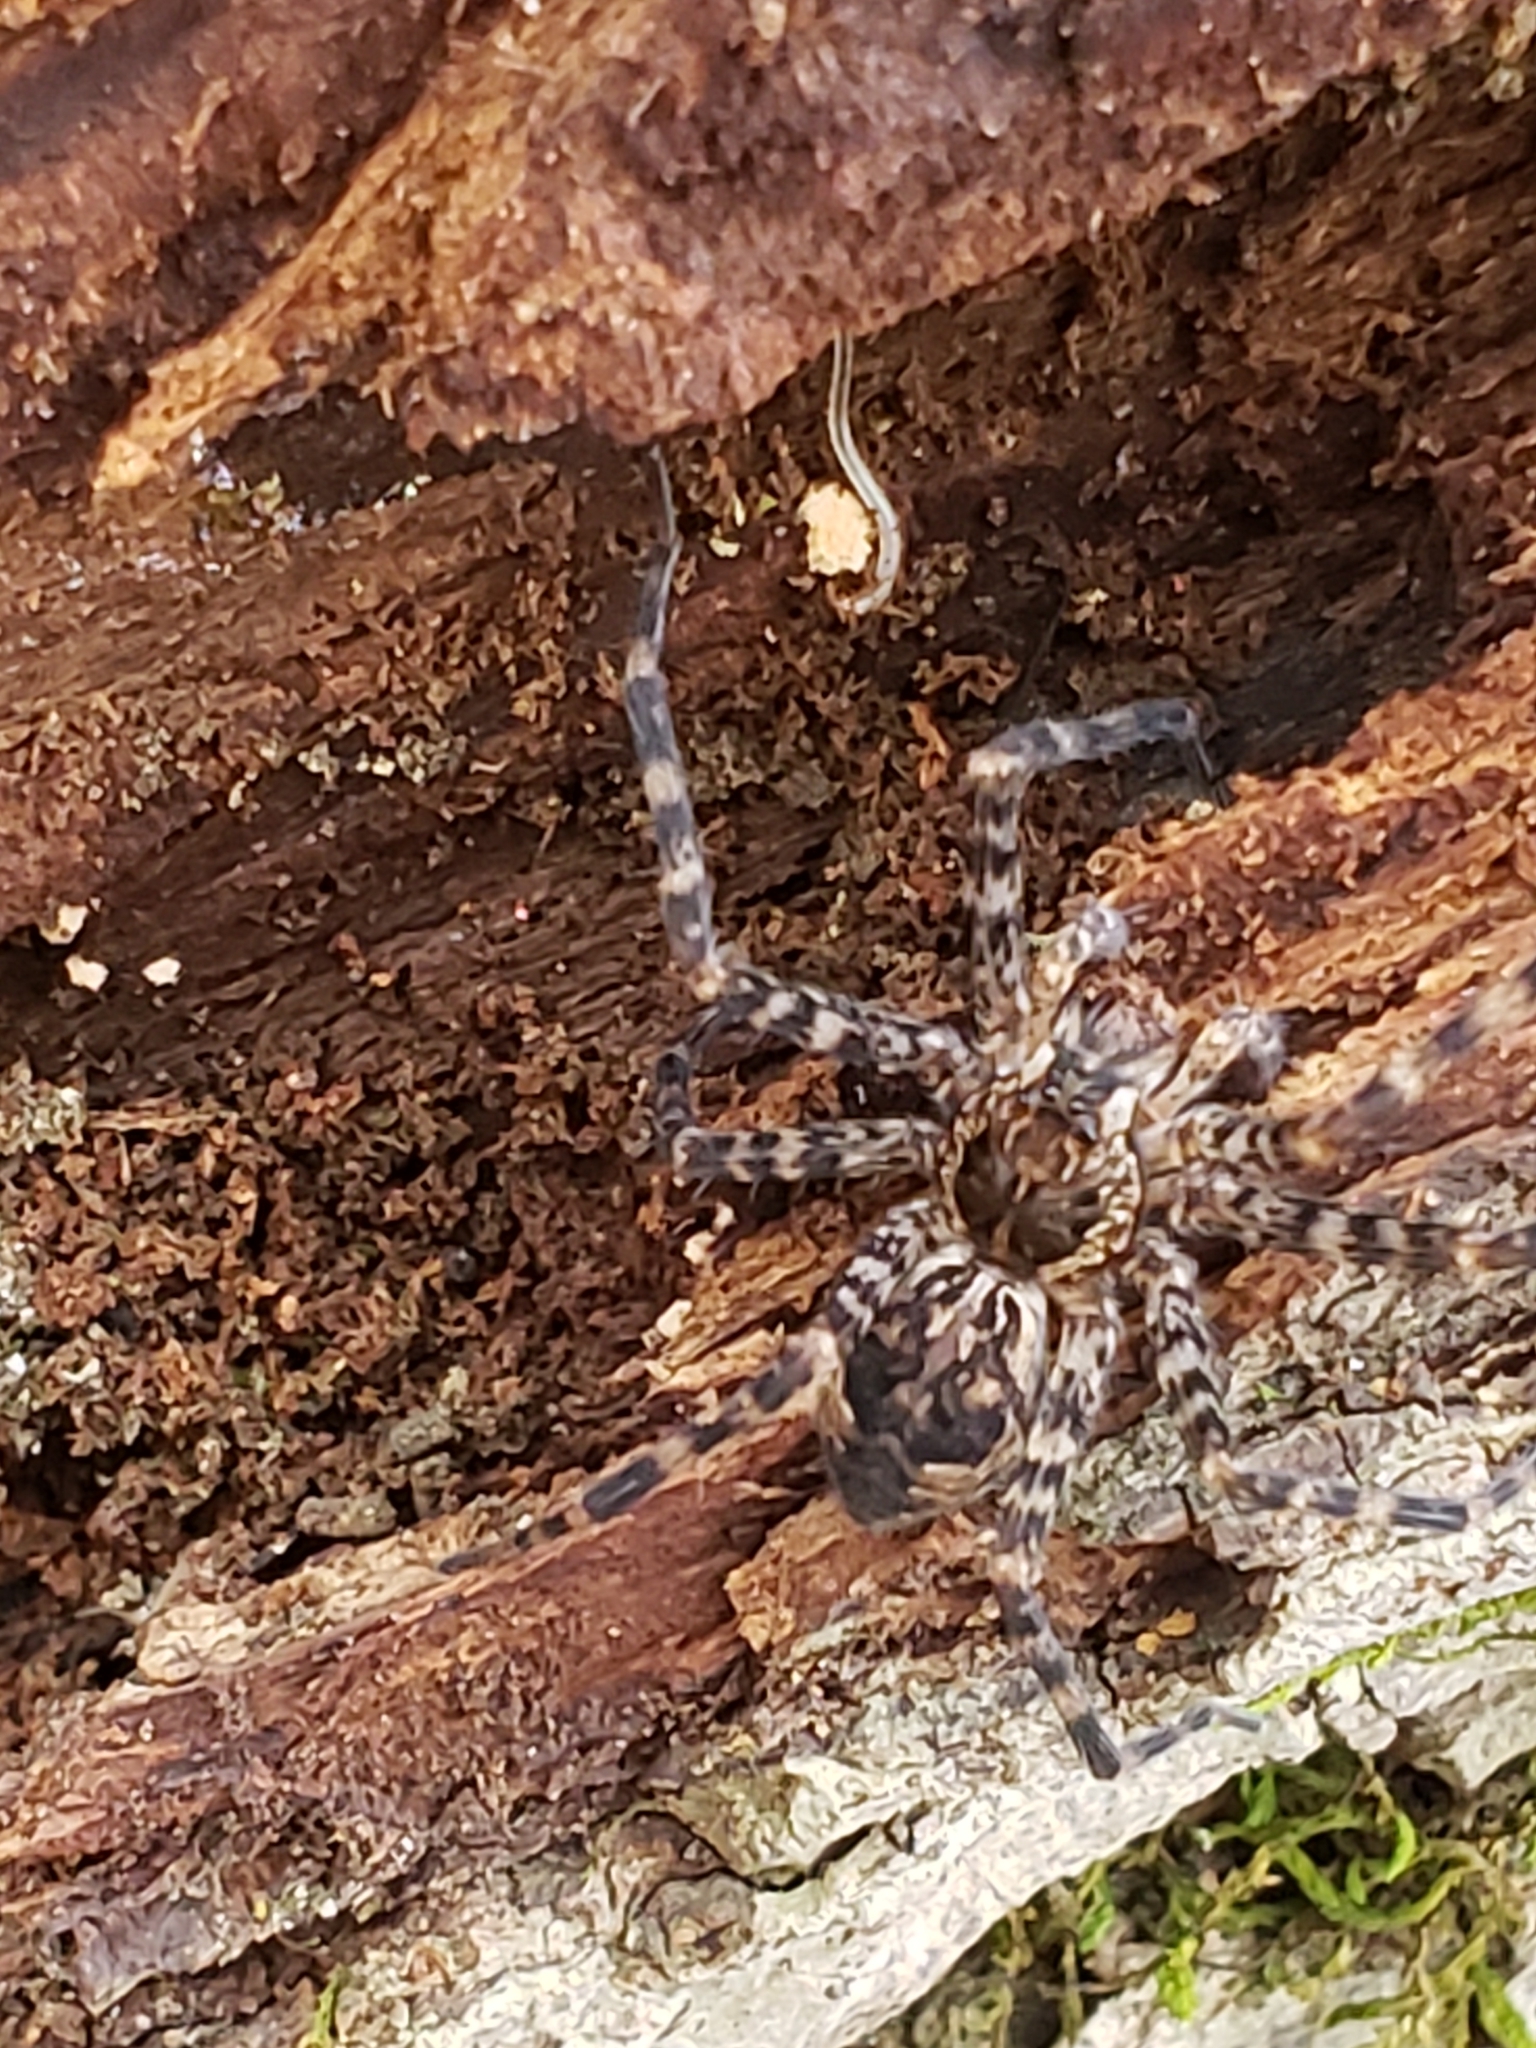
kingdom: Animalia
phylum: Arthropoda
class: Arachnida
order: Araneae
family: Pisauridae
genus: Dolomedes
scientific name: Dolomedes tenebrosus
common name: Dark fishing spider
